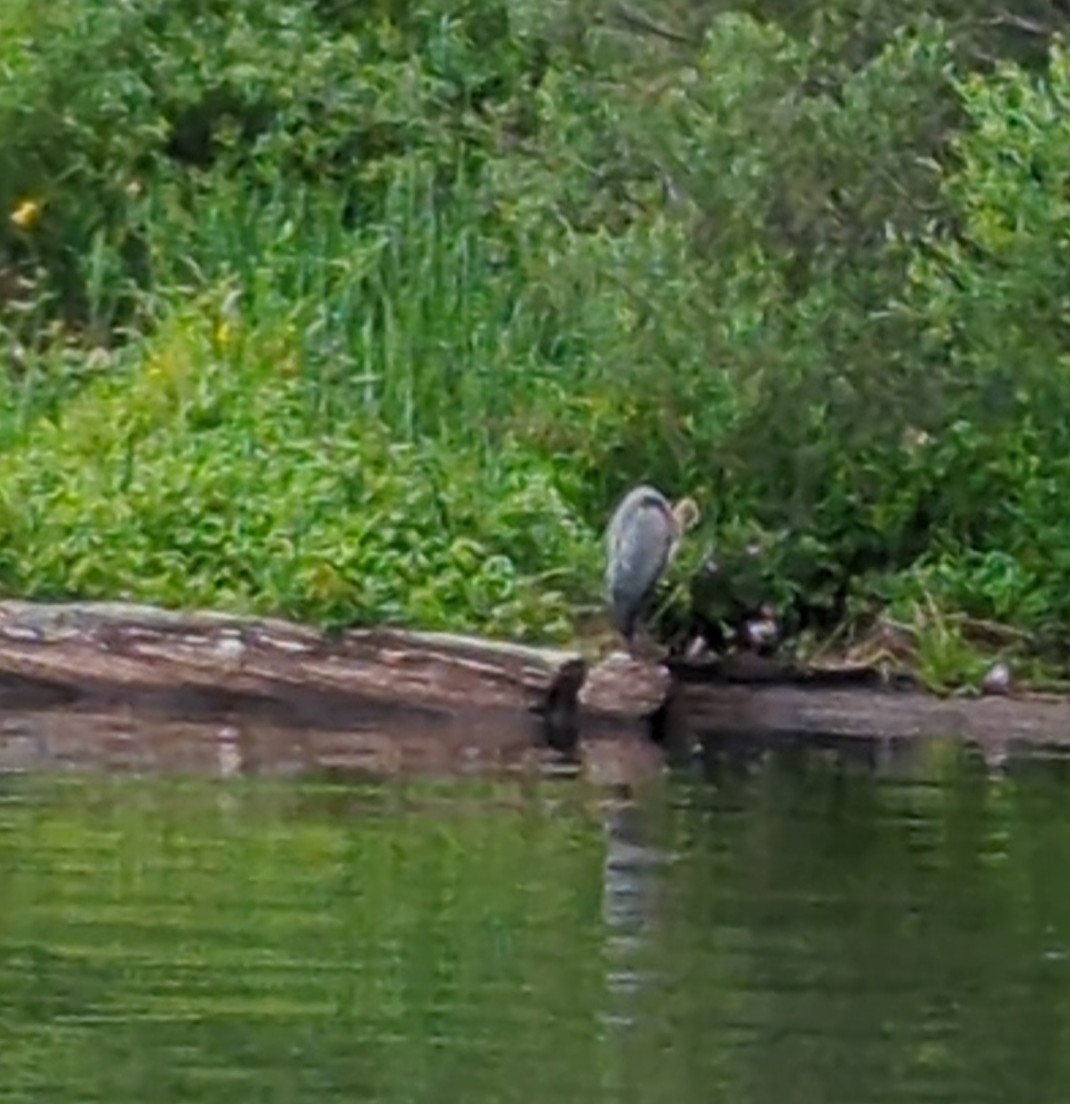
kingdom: Animalia
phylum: Chordata
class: Aves
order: Pelecaniformes
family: Ardeidae
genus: Ardea
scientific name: Ardea herodias
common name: Great blue heron
